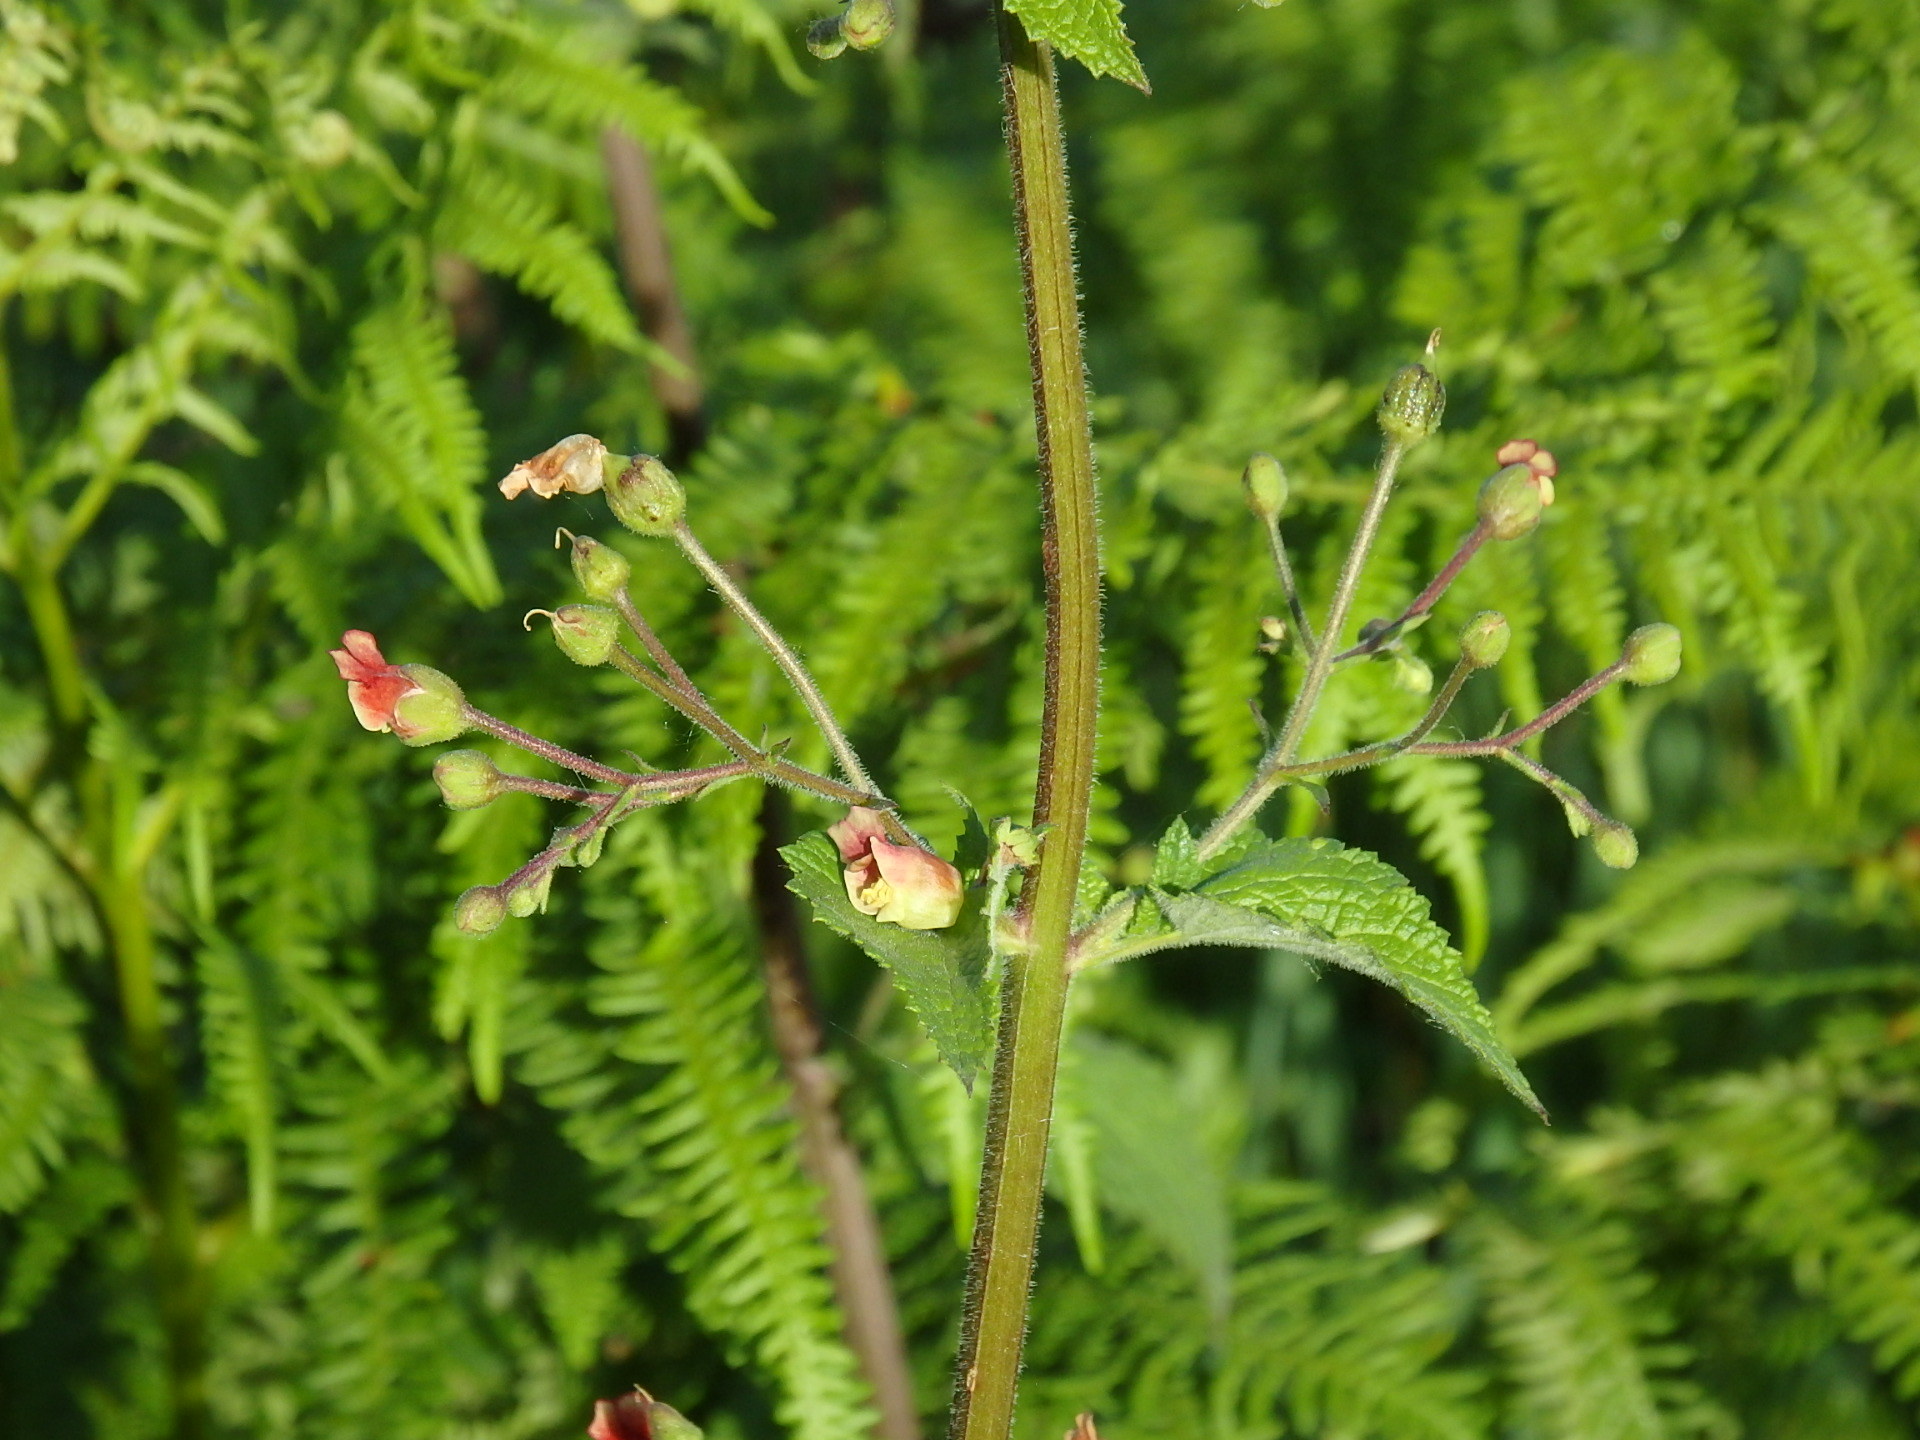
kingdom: Plantae
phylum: Tracheophyta
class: Magnoliopsida
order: Lamiales
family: Scrophulariaceae
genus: Scrophularia
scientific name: Scrophularia scorodonia
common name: Balm-leaved figwort
